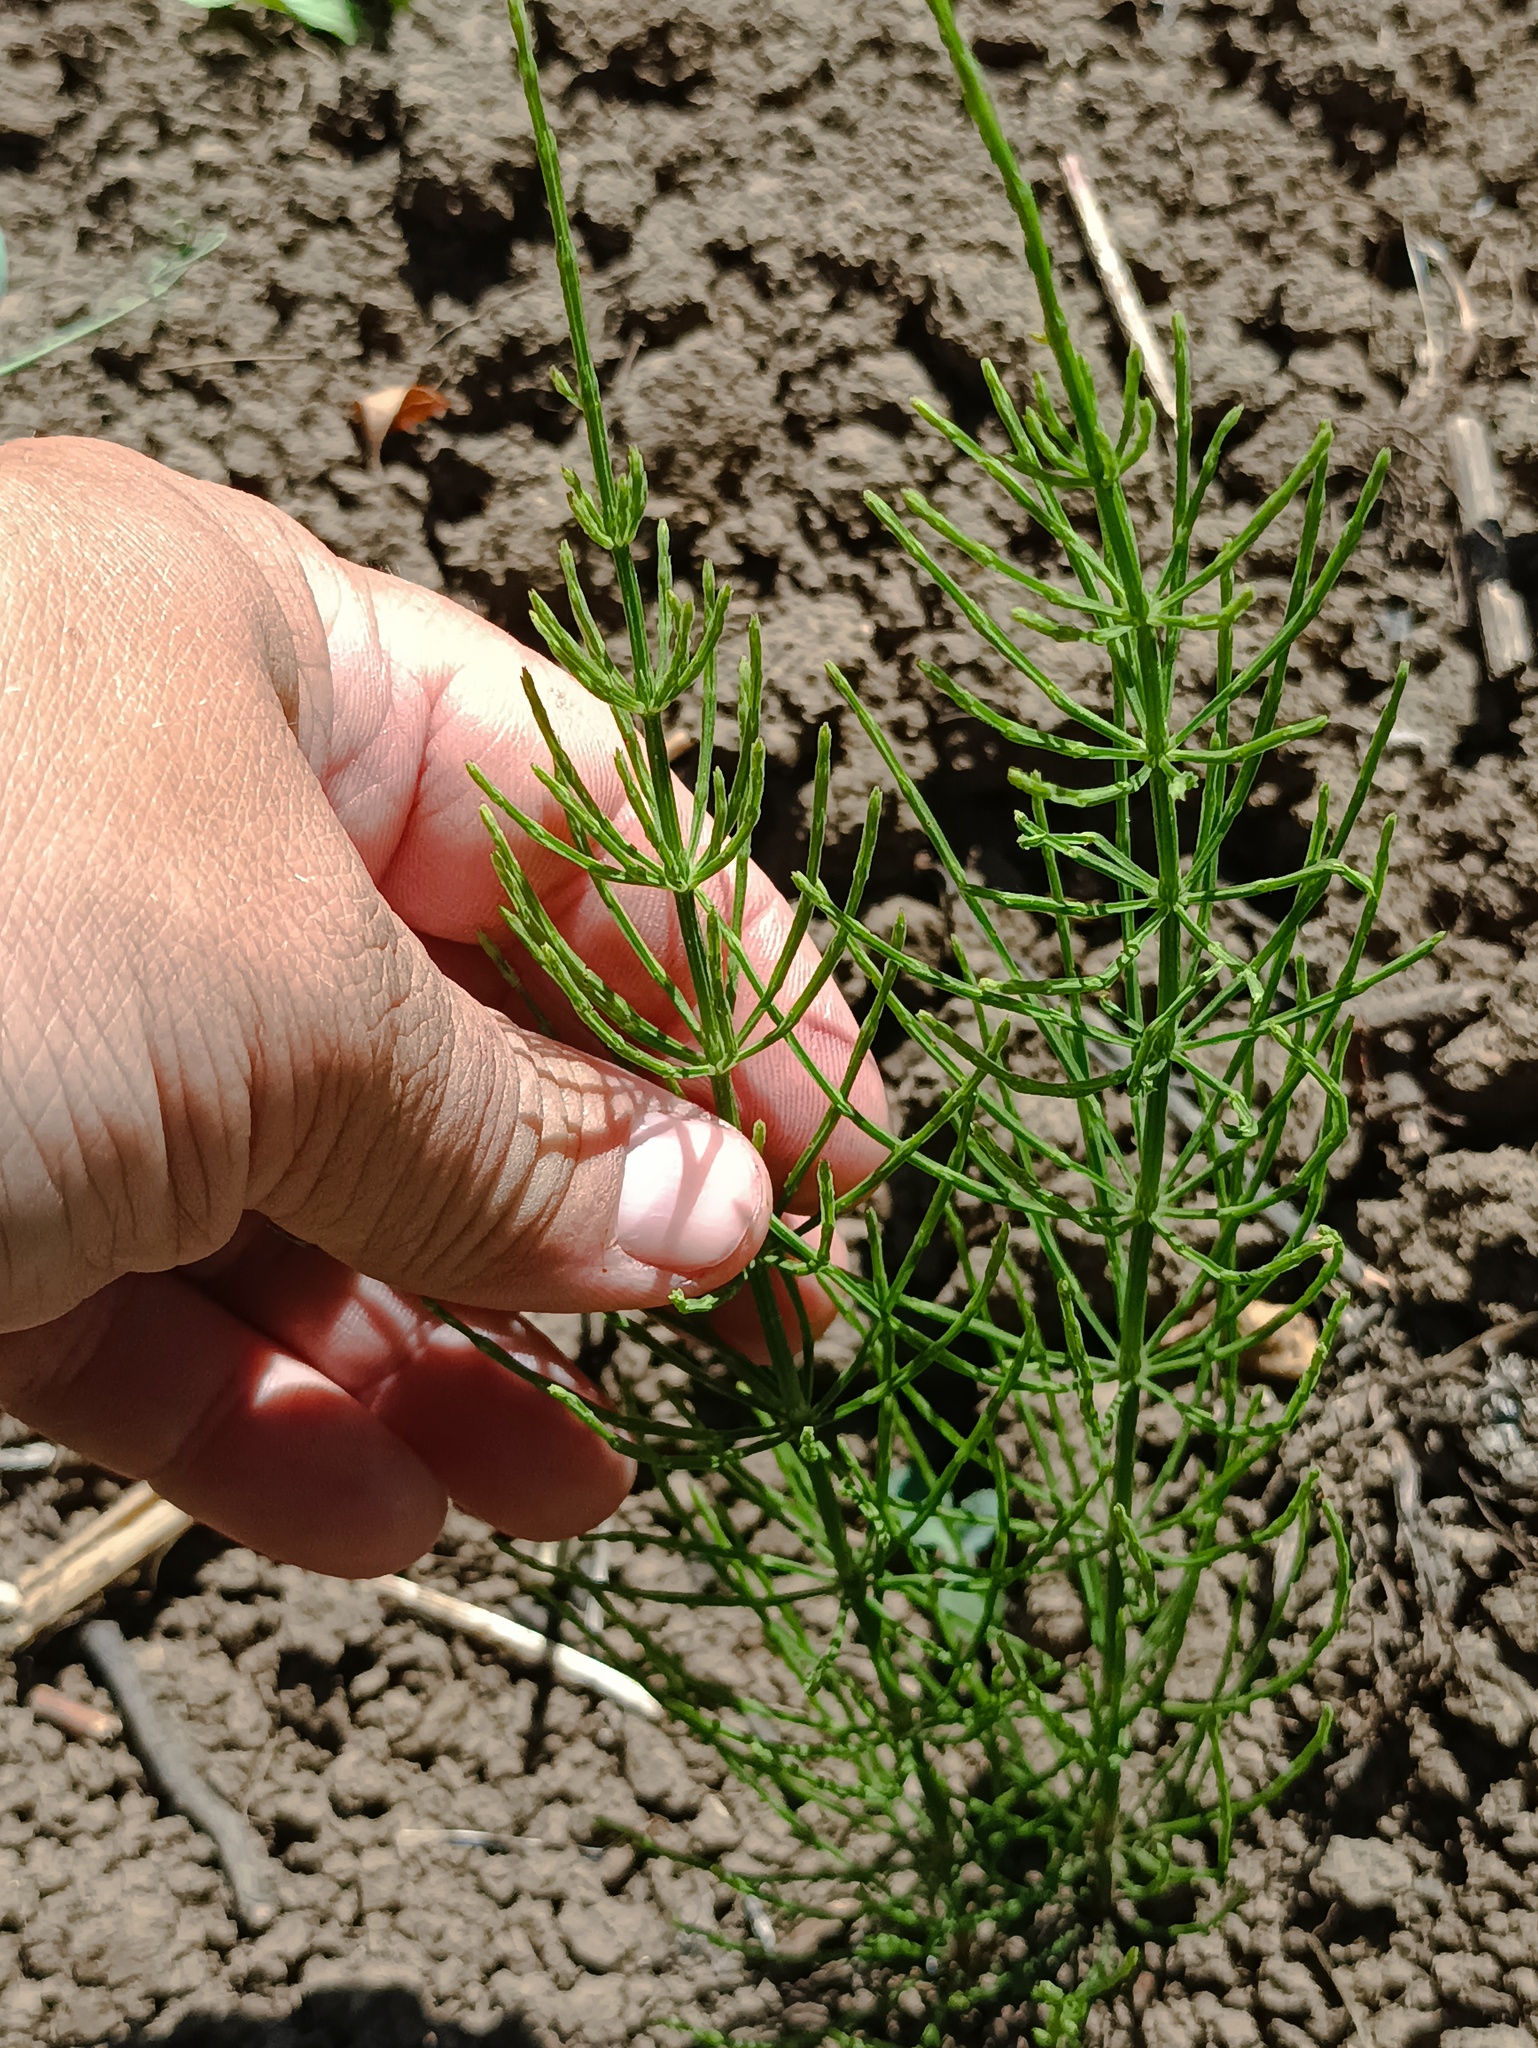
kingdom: Plantae
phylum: Tracheophyta
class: Polypodiopsida
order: Equisetales
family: Equisetaceae
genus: Equisetum
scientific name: Equisetum arvense
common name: Field horsetail
